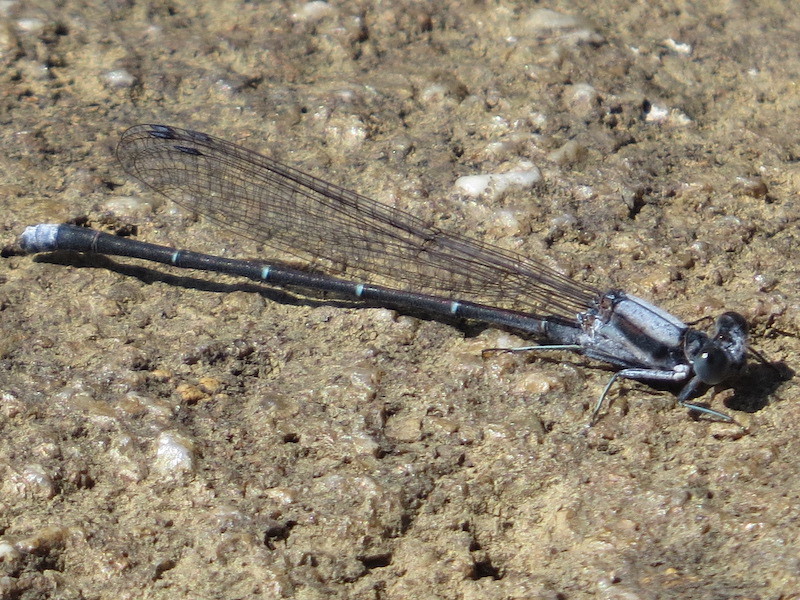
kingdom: Animalia
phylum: Arthropoda
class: Insecta
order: Odonata
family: Coenagrionidae
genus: Argia
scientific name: Argia moesta
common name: Powdered dancer
